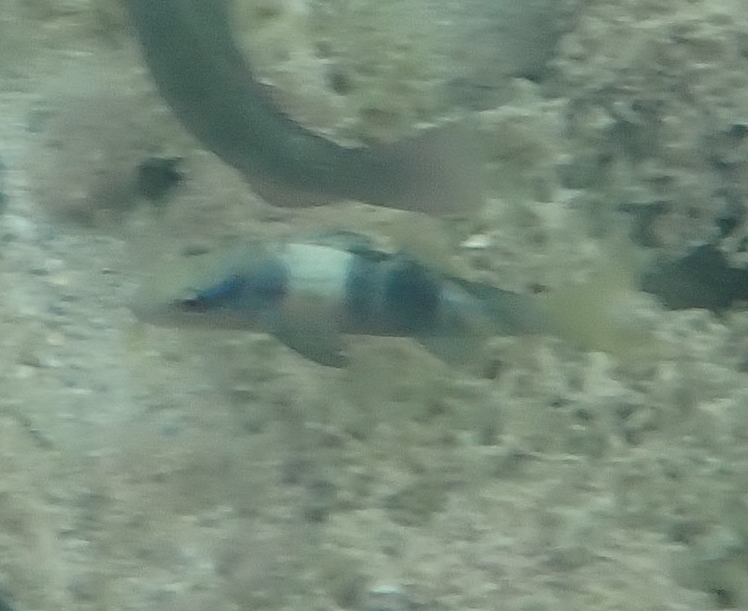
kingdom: Animalia
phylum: Chordata
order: Perciformes
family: Mullidae
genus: Parupeneus
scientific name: Parupeneus multifasciatus
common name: Manybar goatfish
